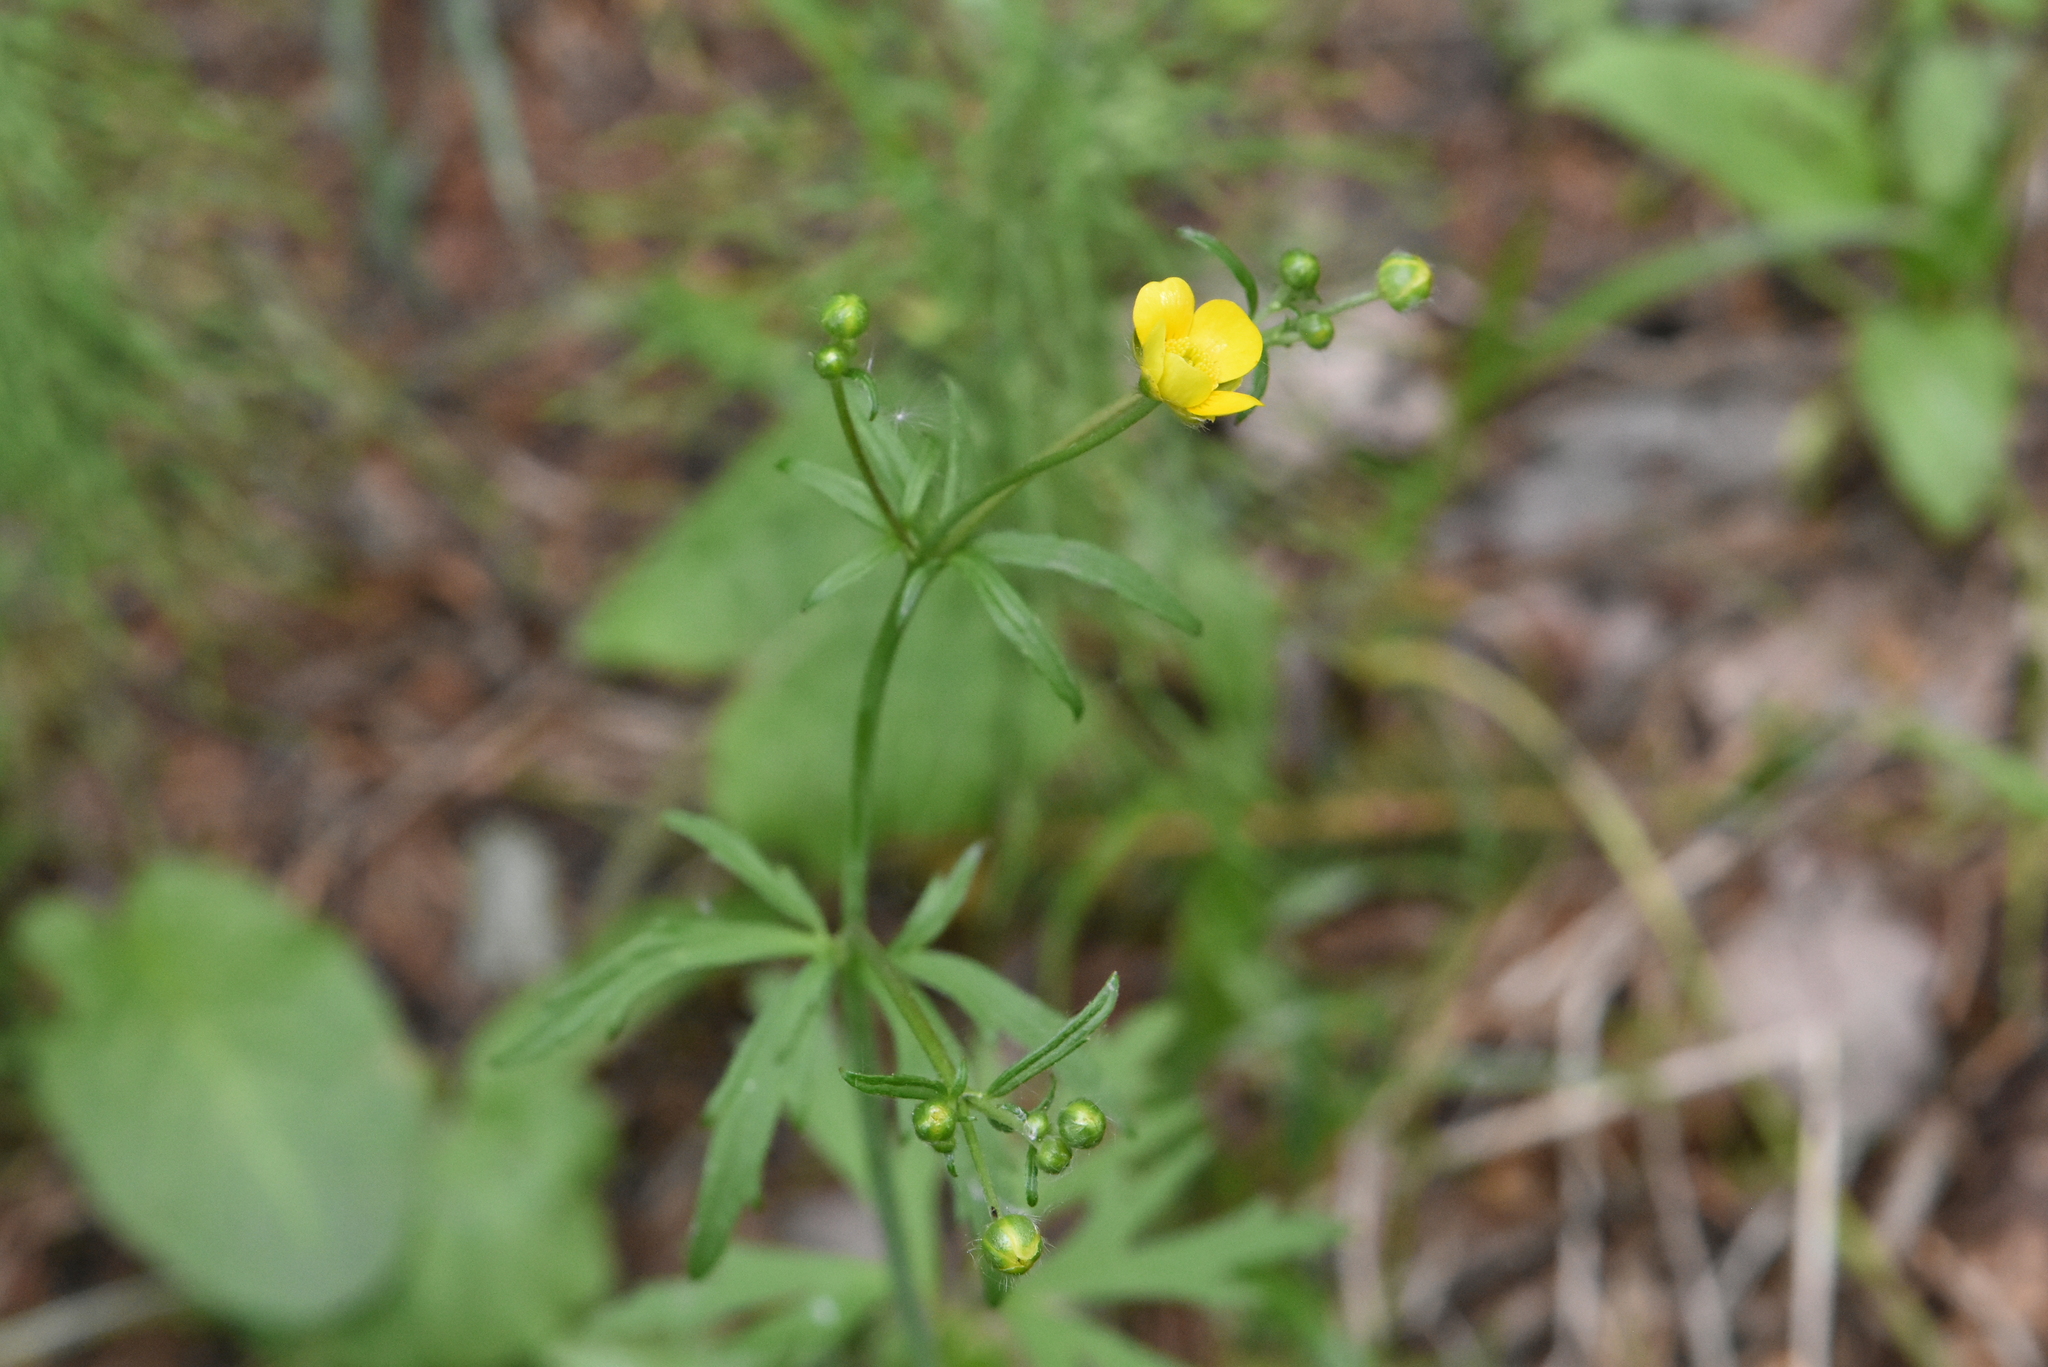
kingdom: Plantae
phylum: Tracheophyta
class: Magnoliopsida
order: Ranunculales
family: Ranunculaceae
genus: Ranunculus
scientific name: Ranunculus acris
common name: Meadow buttercup
